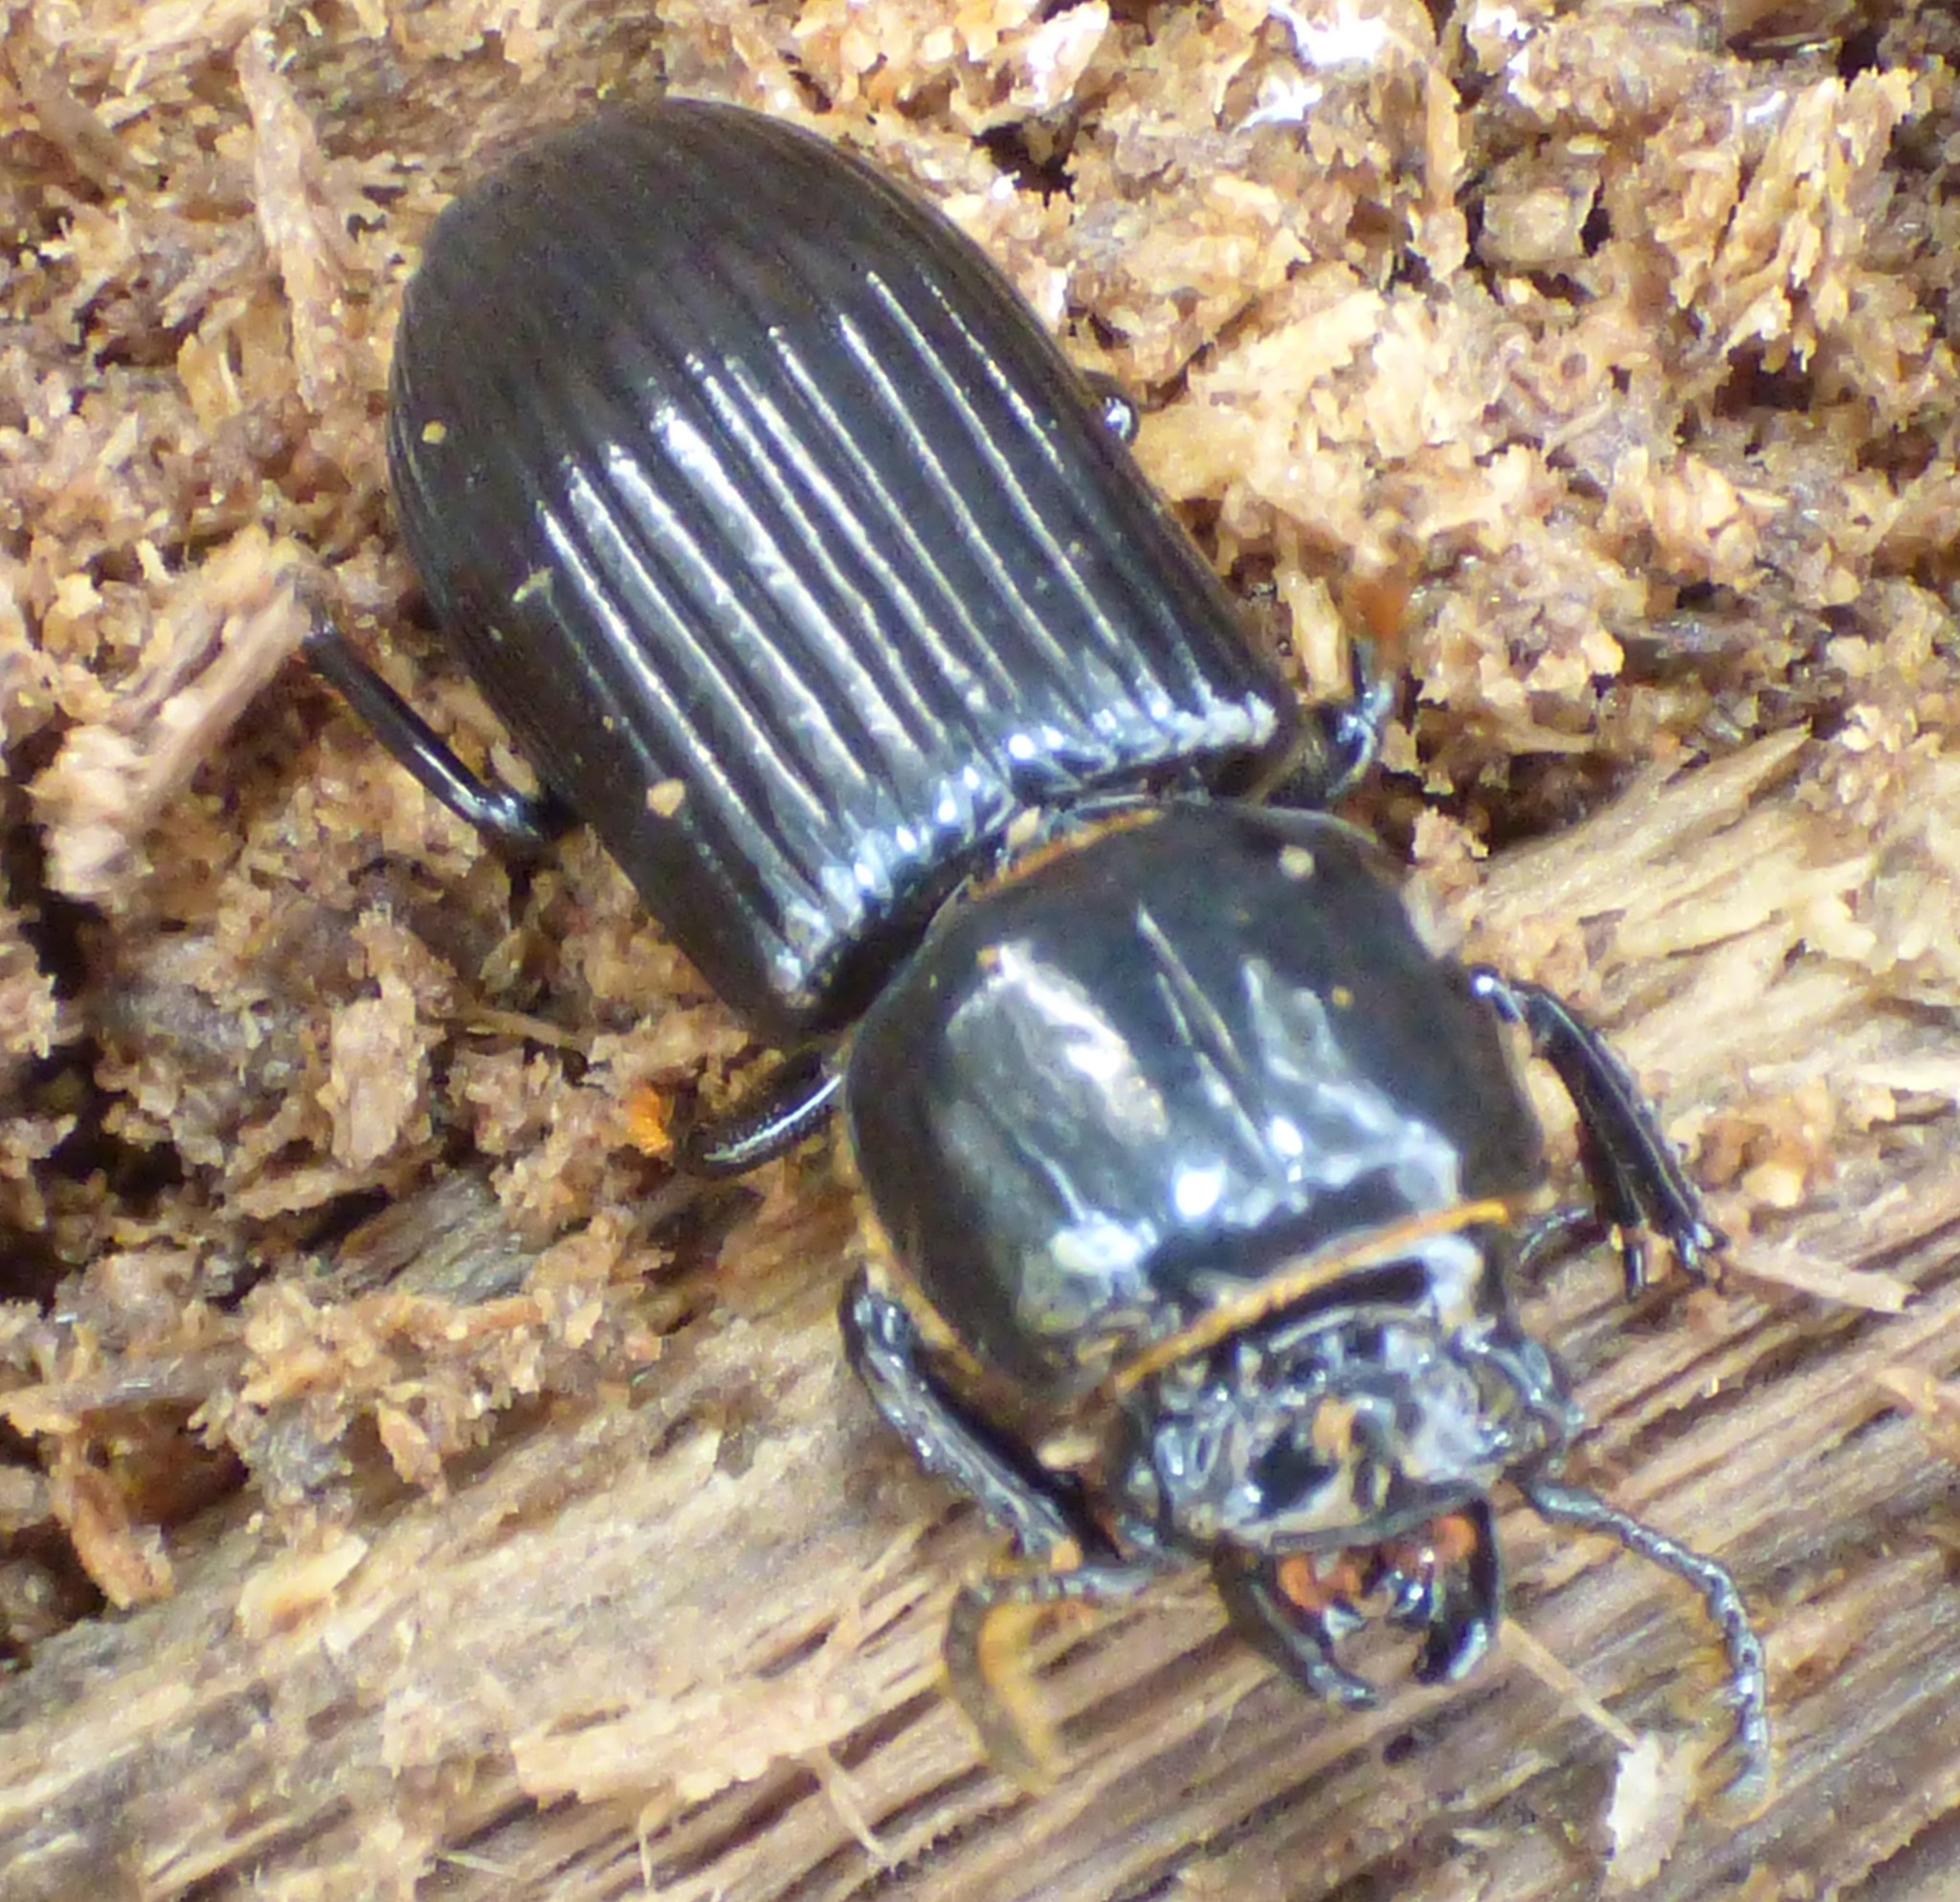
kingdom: Animalia
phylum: Arthropoda
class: Insecta
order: Coleoptera
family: Passalidae
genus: Odontotaenius
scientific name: Odontotaenius disjunctus
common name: Patent leather beetle
